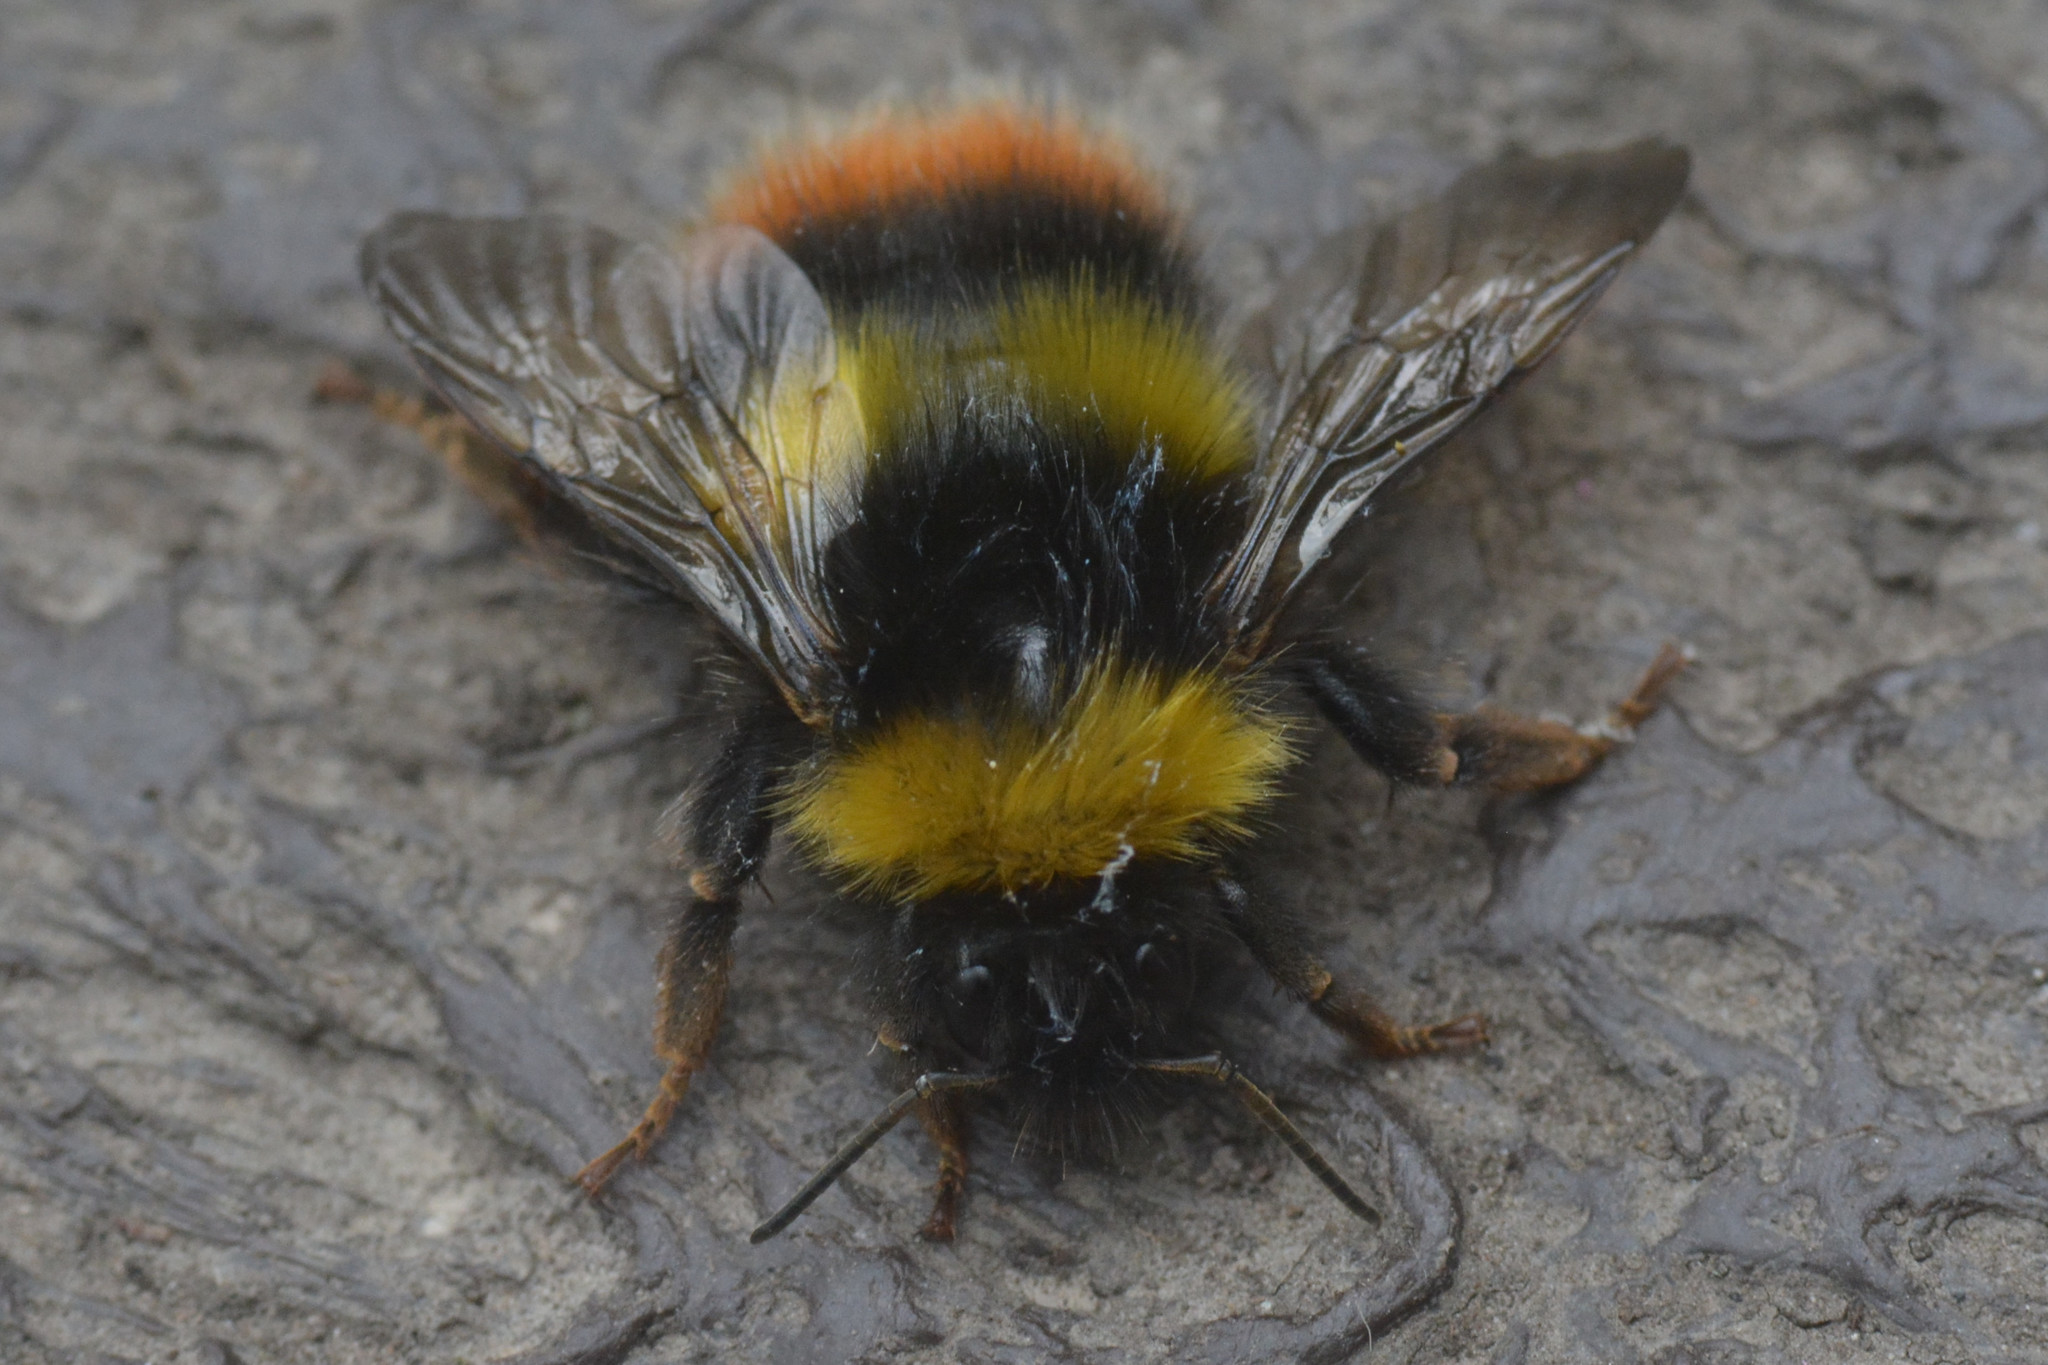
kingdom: Animalia
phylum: Arthropoda
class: Insecta
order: Hymenoptera
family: Apidae
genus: Bombus
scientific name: Bombus pratorum
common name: Early humble-bee
